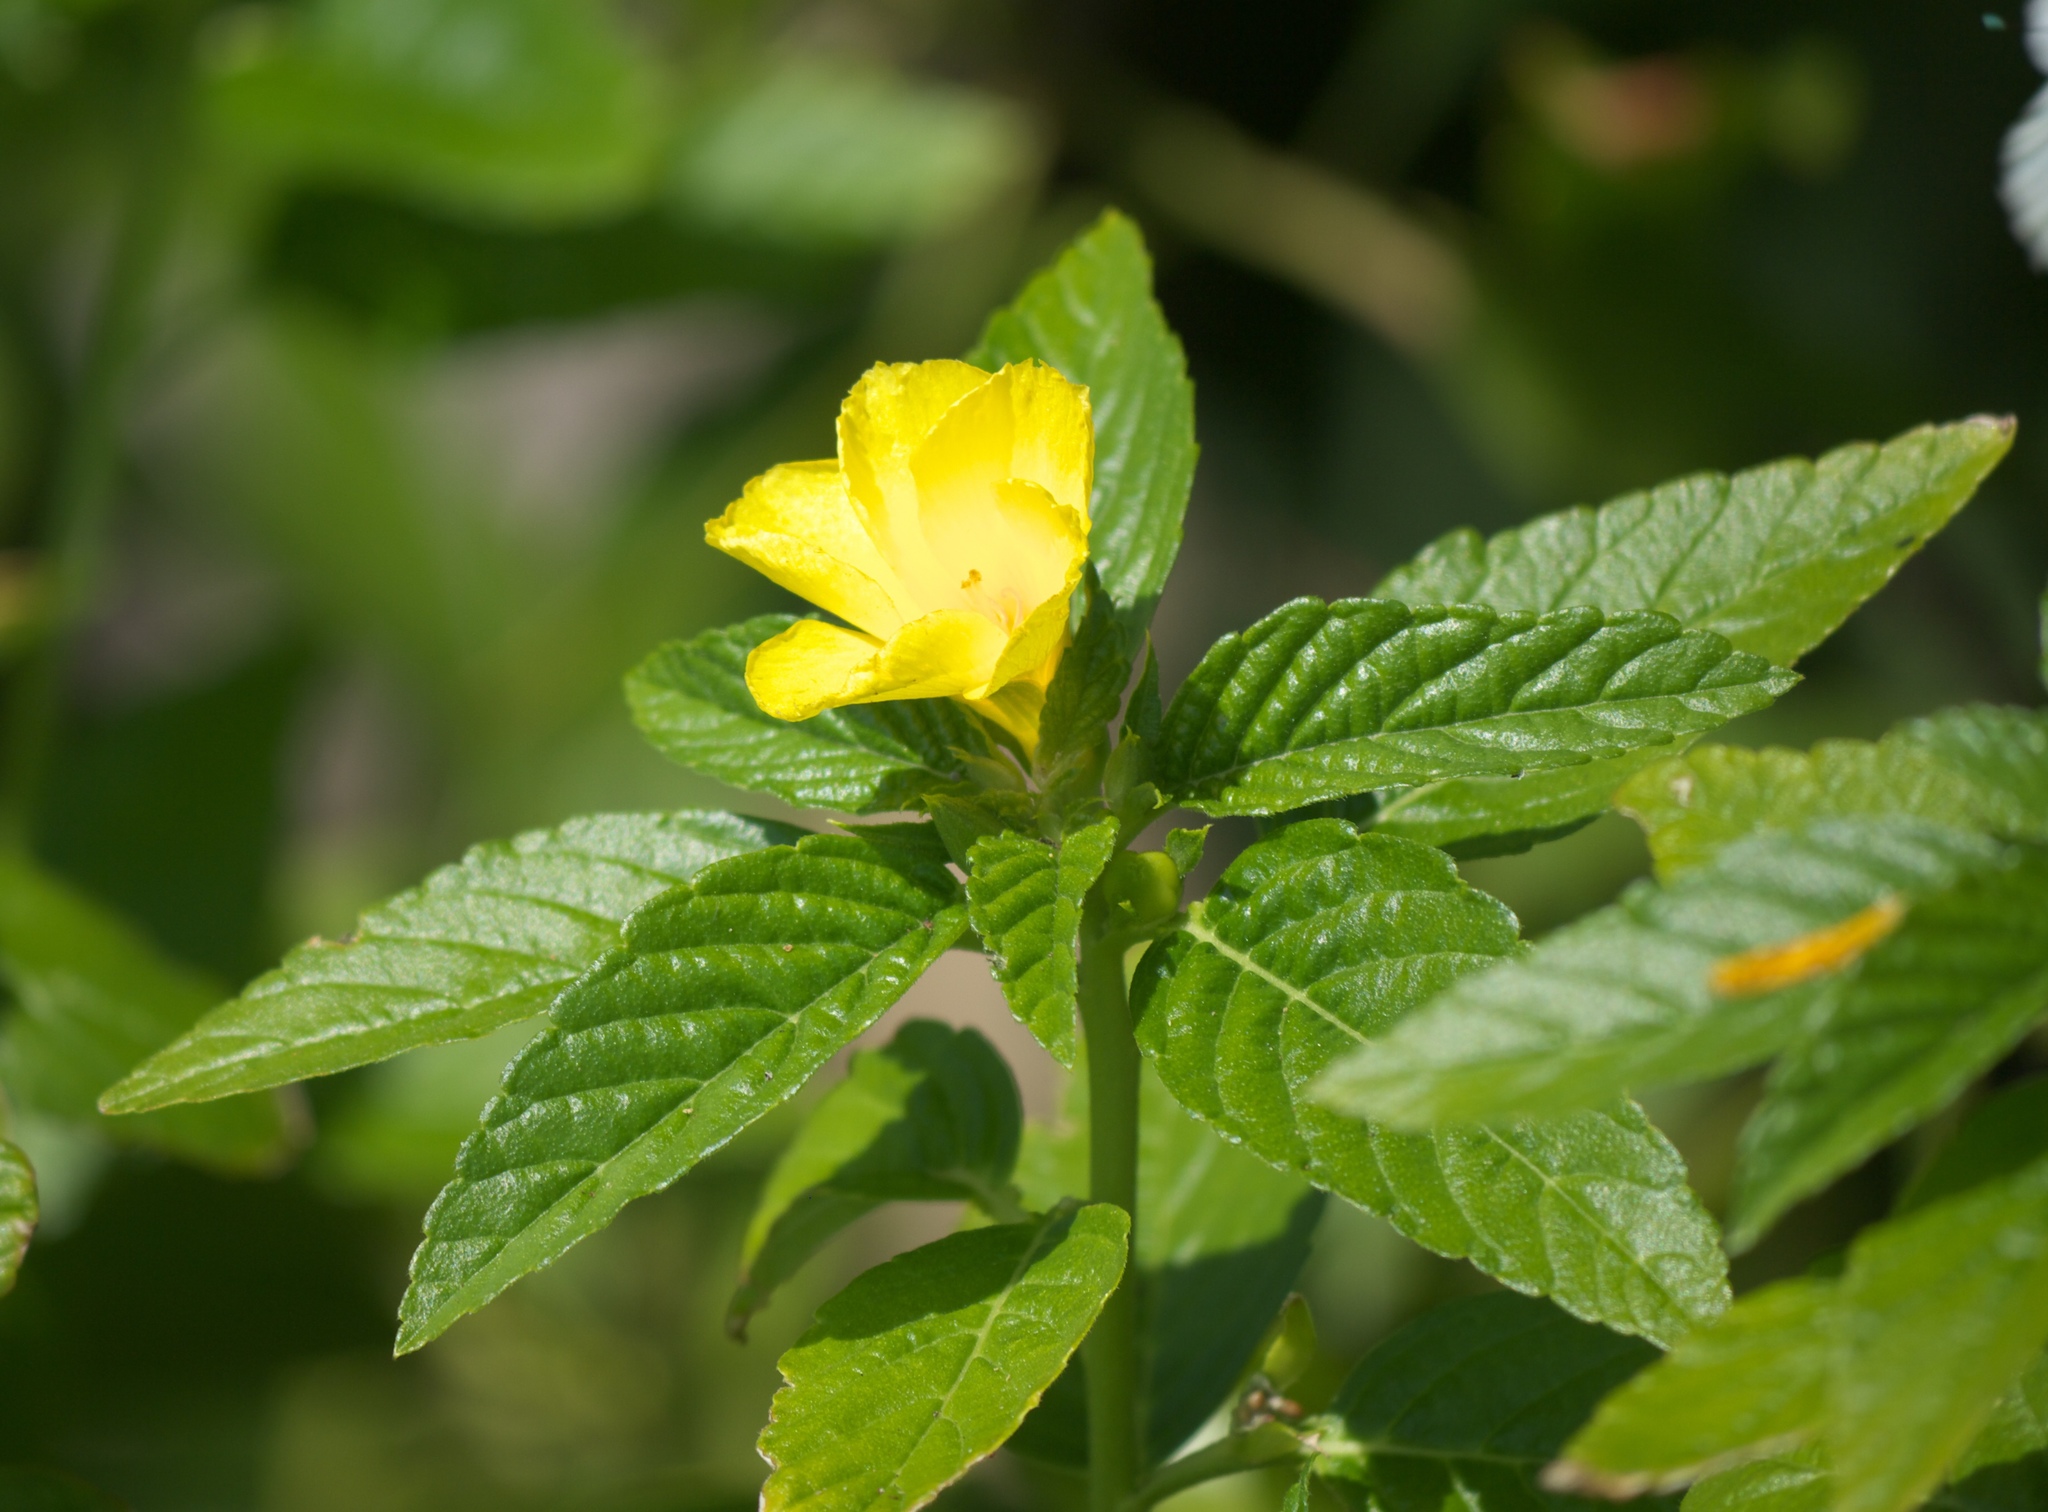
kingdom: Plantae
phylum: Tracheophyta
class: Magnoliopsida
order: Malpighiales
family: Turneraceae
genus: Turnera
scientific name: Turnera ulmifolia
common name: Ramgoat dashalong
